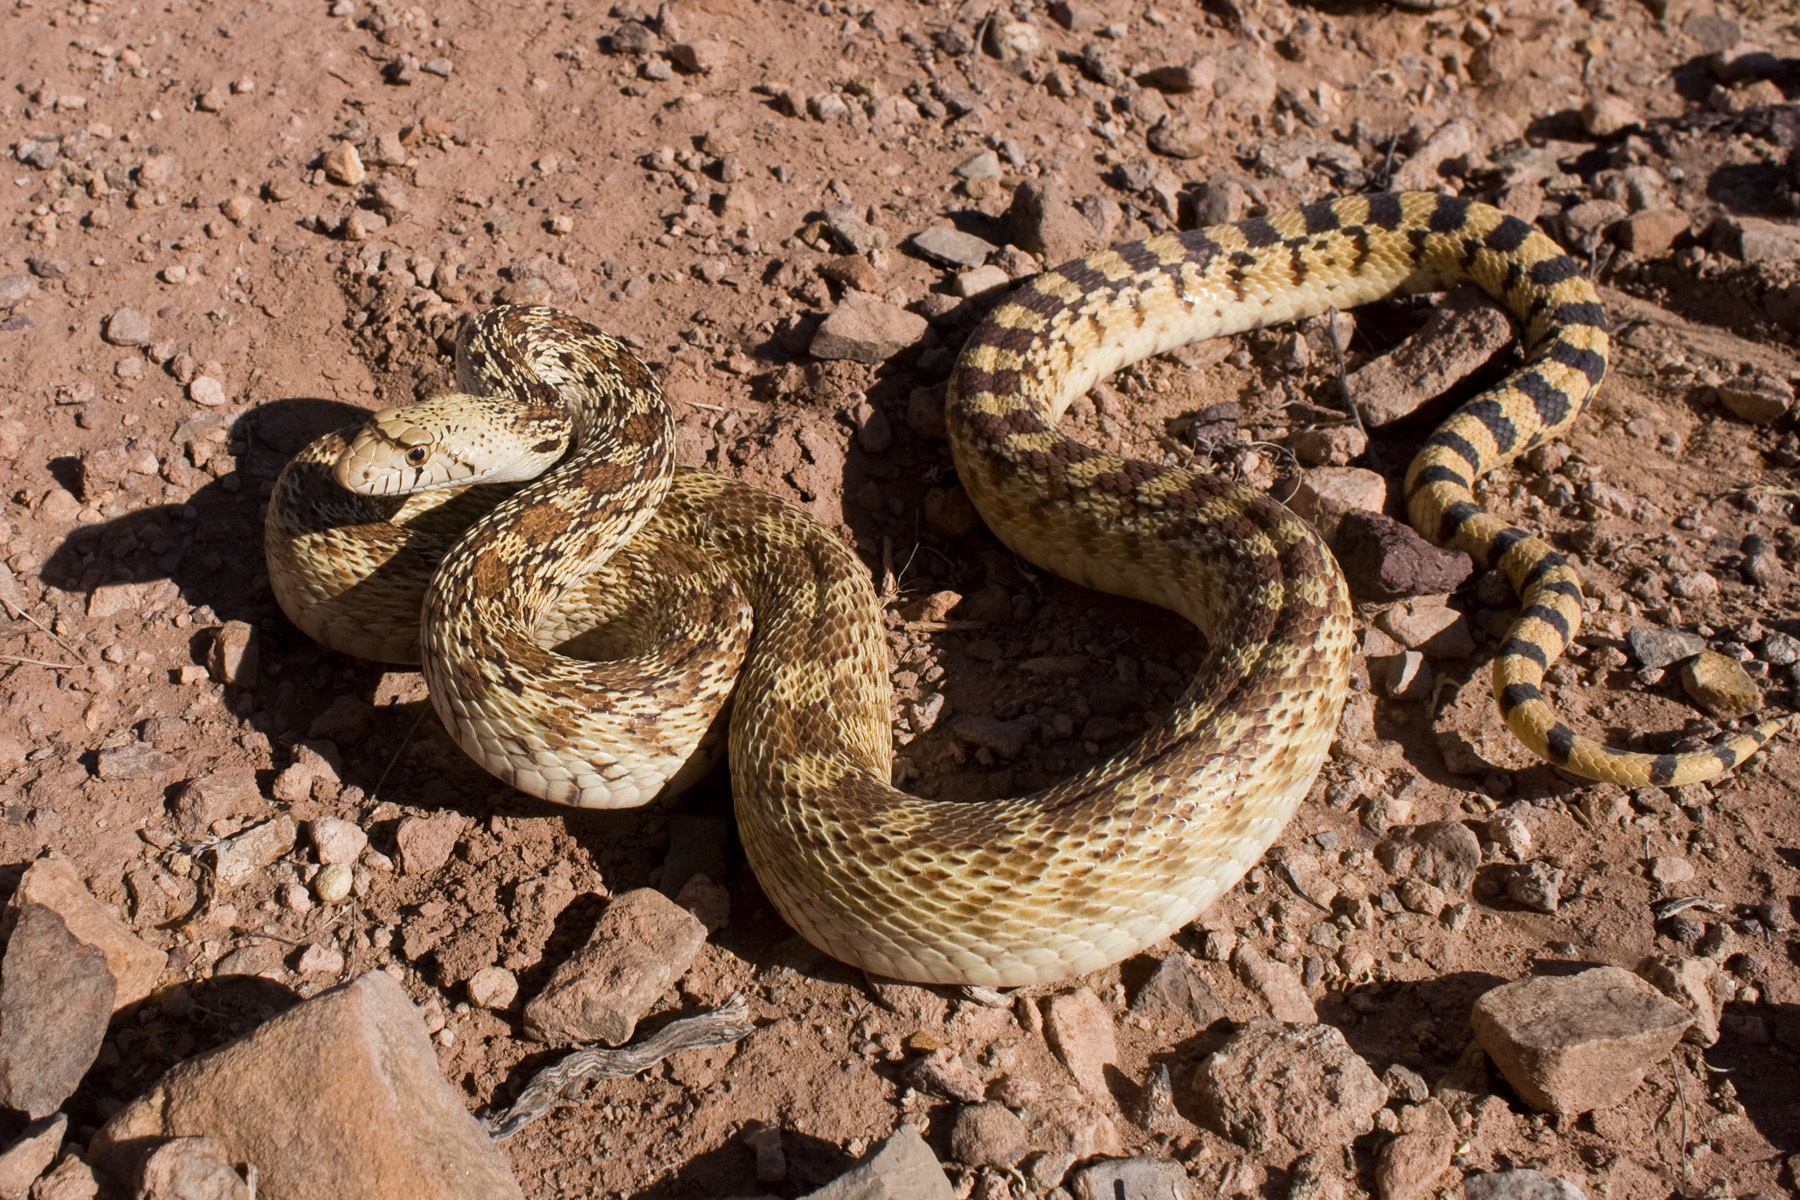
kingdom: Animalia
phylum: Chordata
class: Squamata
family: Colubridae
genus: Pituophis
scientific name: Pituophis catenifer
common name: Gopher snake
